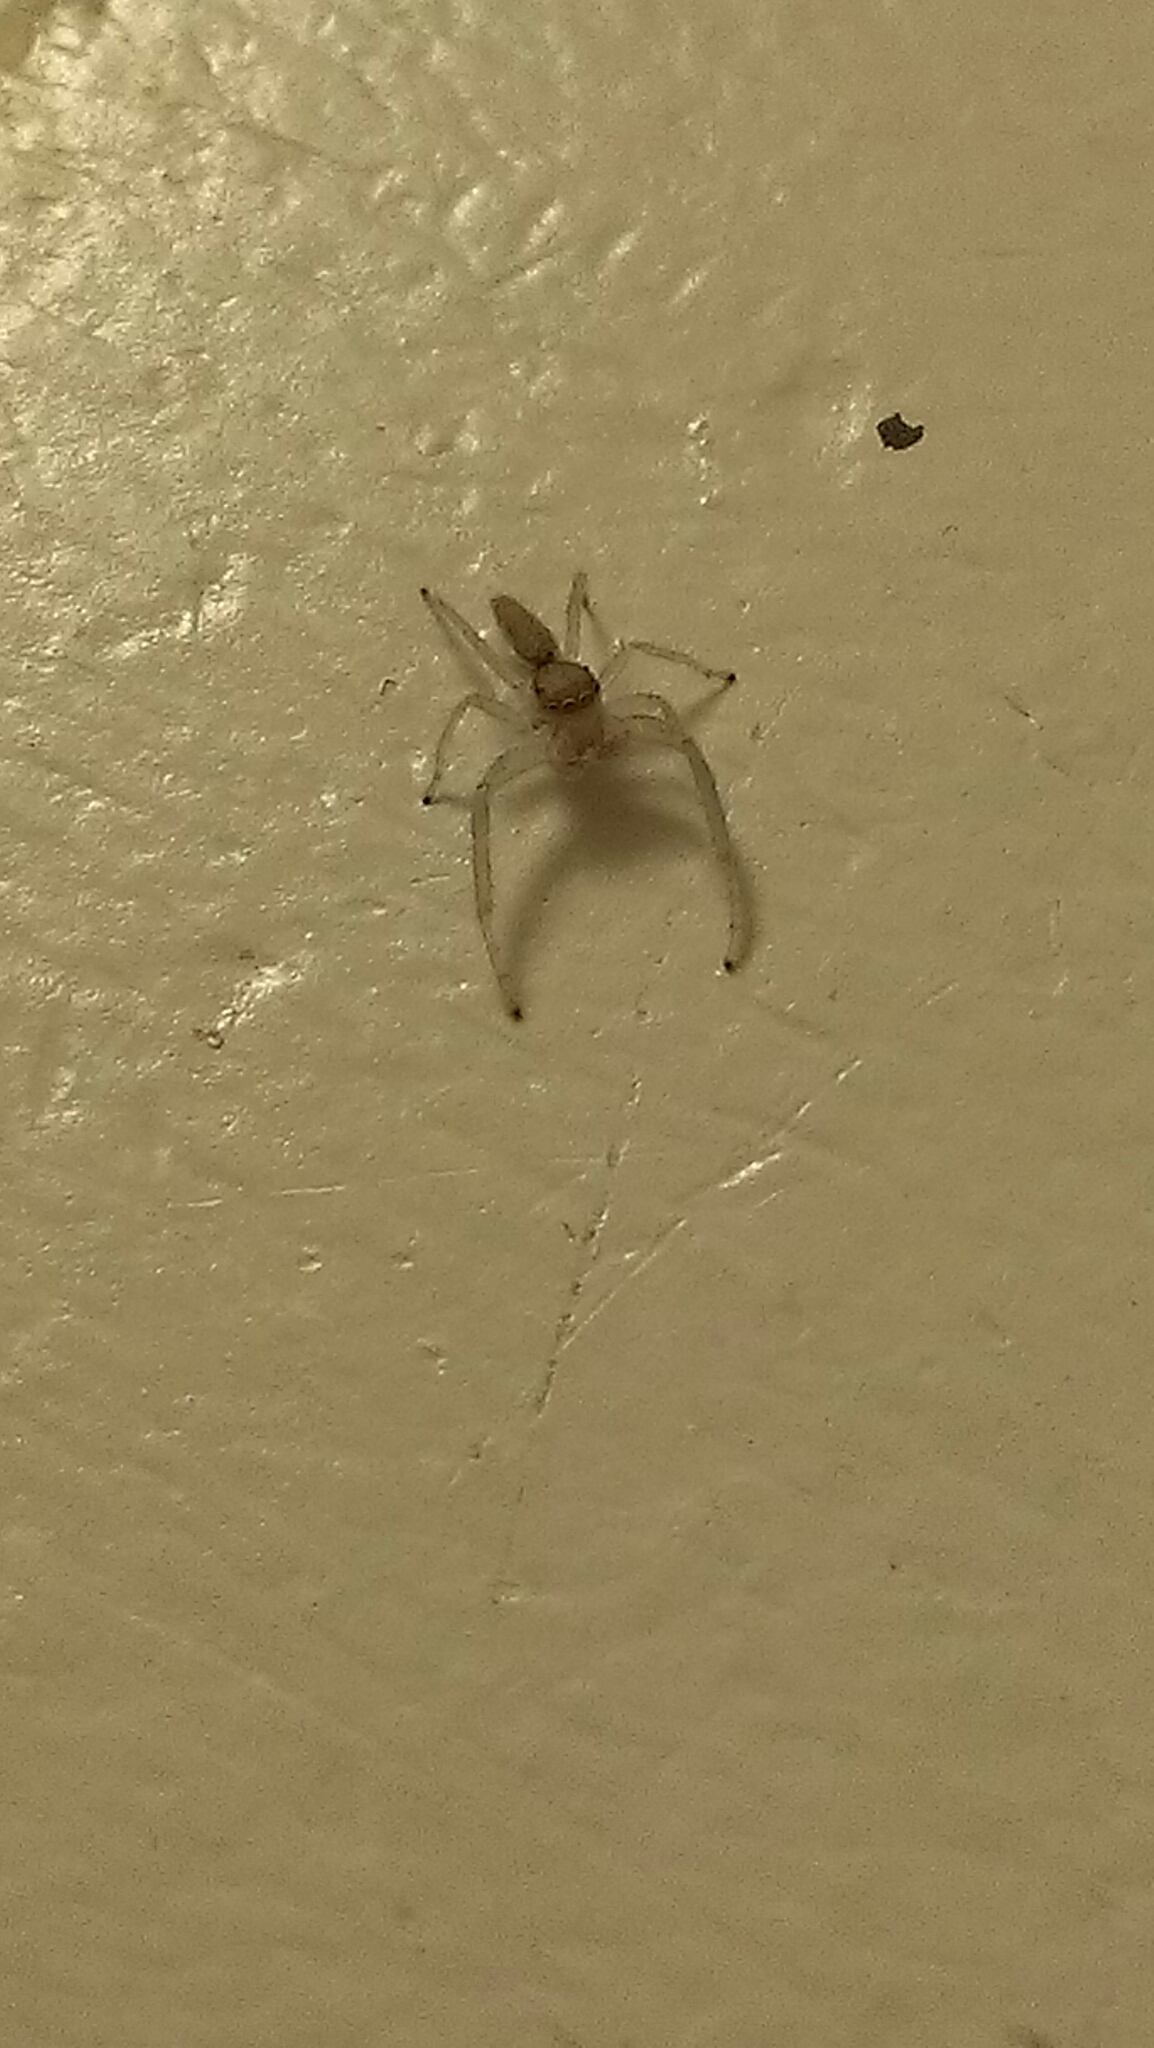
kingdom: Animalia
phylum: Arthropoda
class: Arachnida
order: Araneae
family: Salticidae
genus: Hentzia
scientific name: Hentzia mitrata
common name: White-jawed jumping spider
